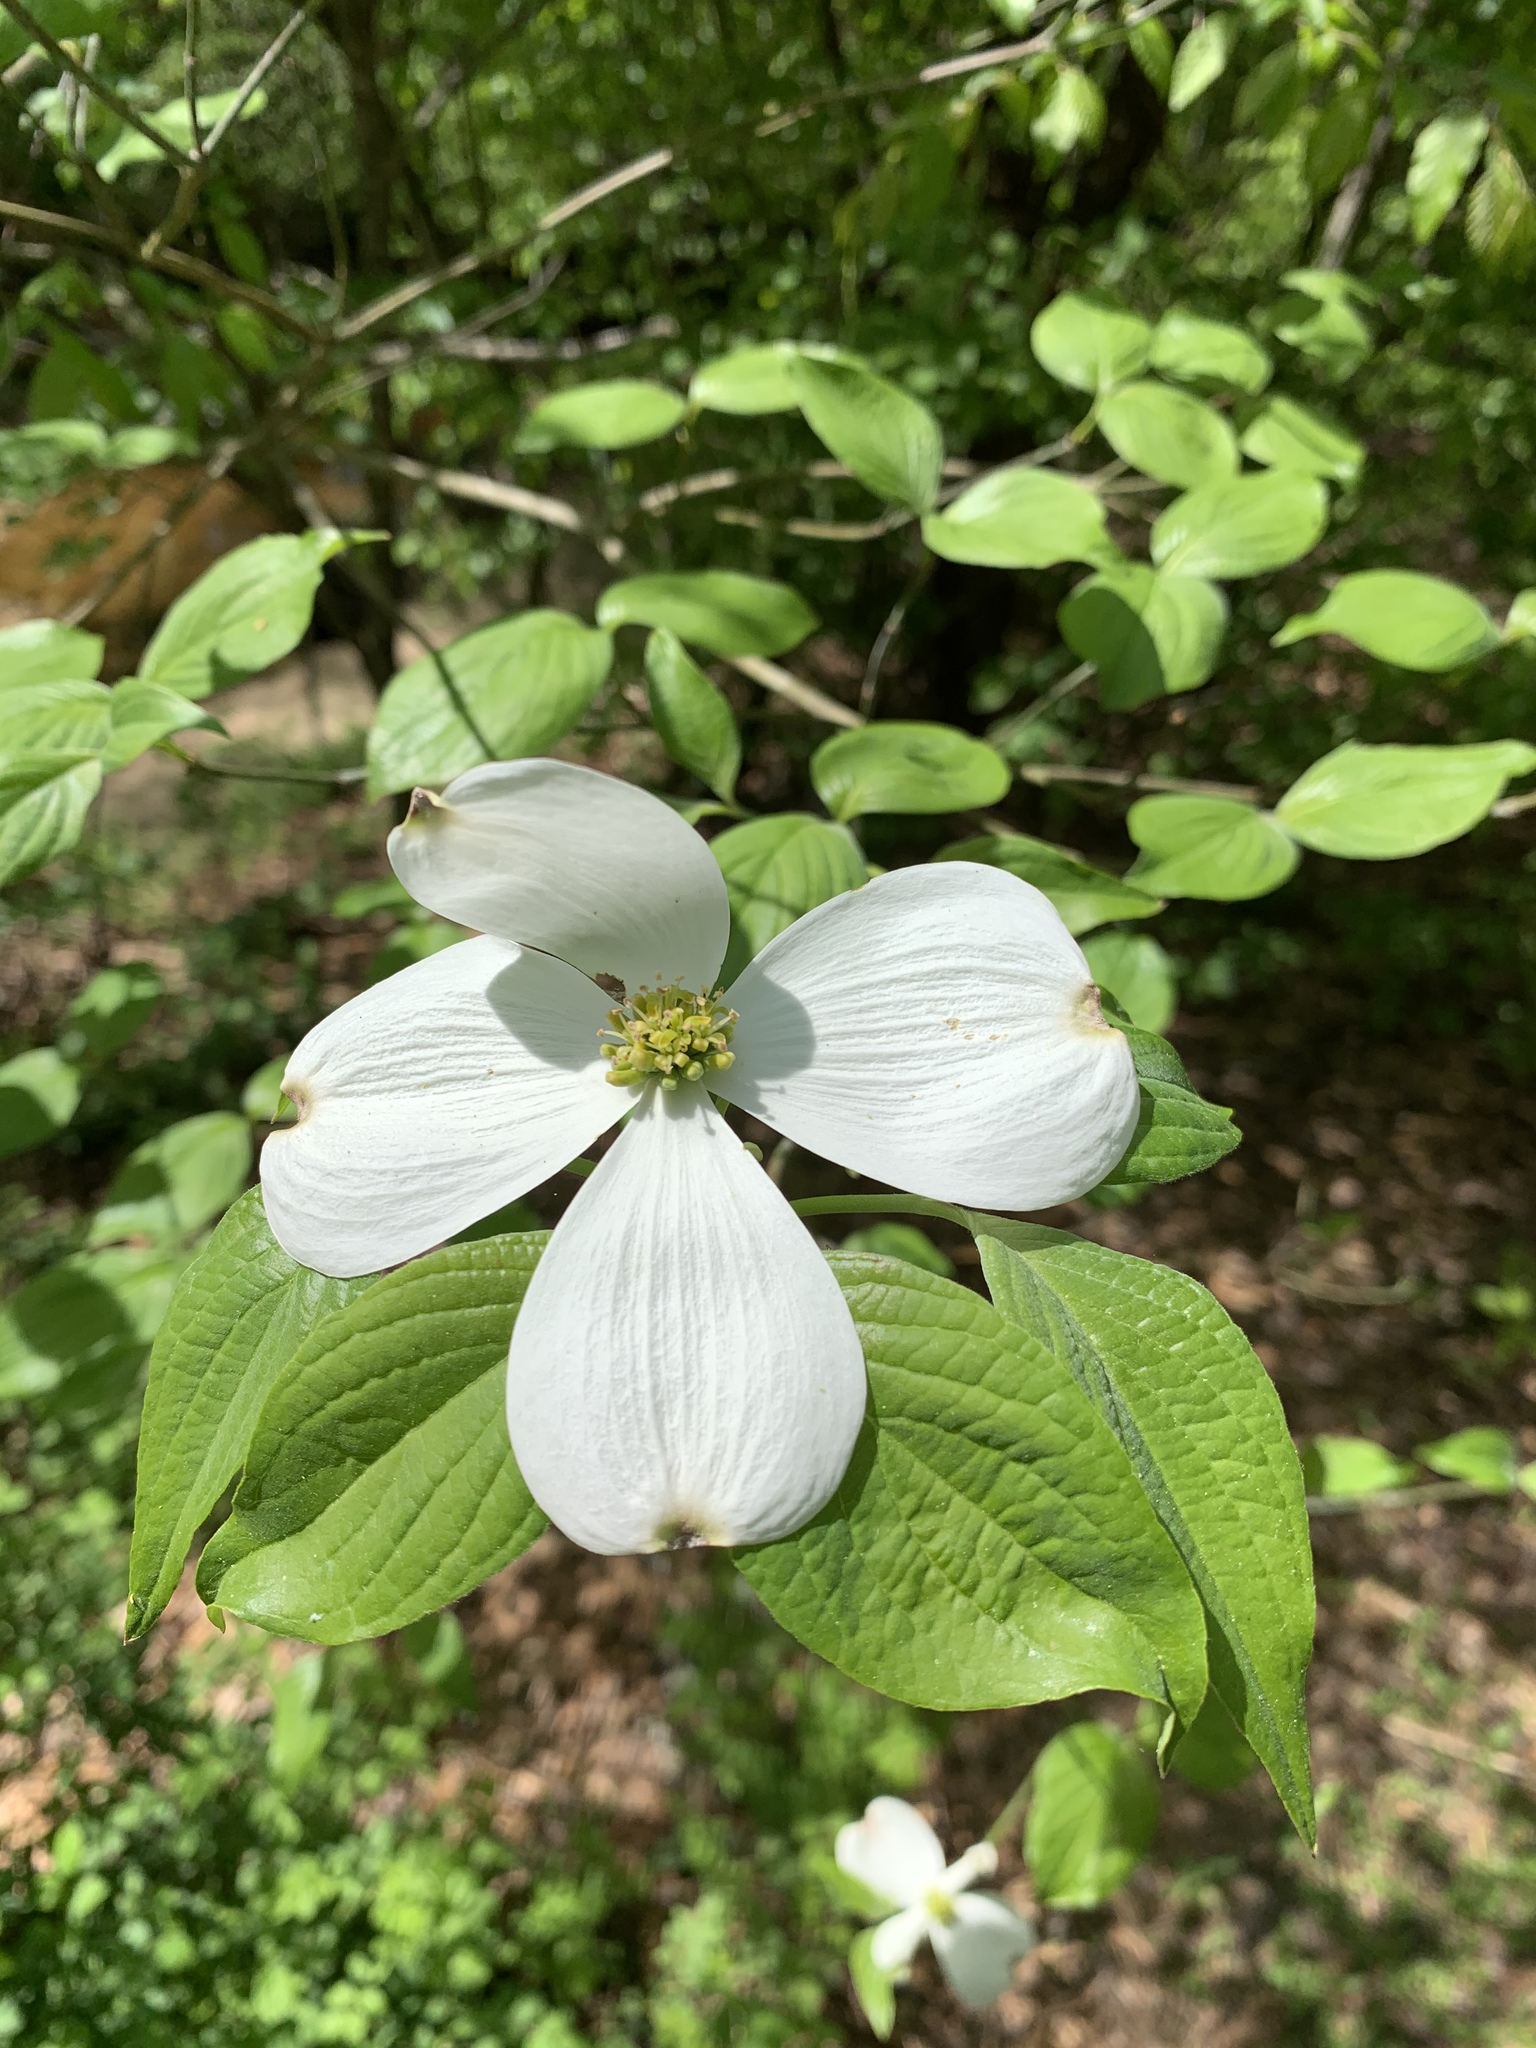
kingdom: Plantae
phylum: Tracheophyta
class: Magnoliopsida
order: Cornales
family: Cornaceae
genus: Cornus
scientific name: Cornus florida
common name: Flowering dogwood
